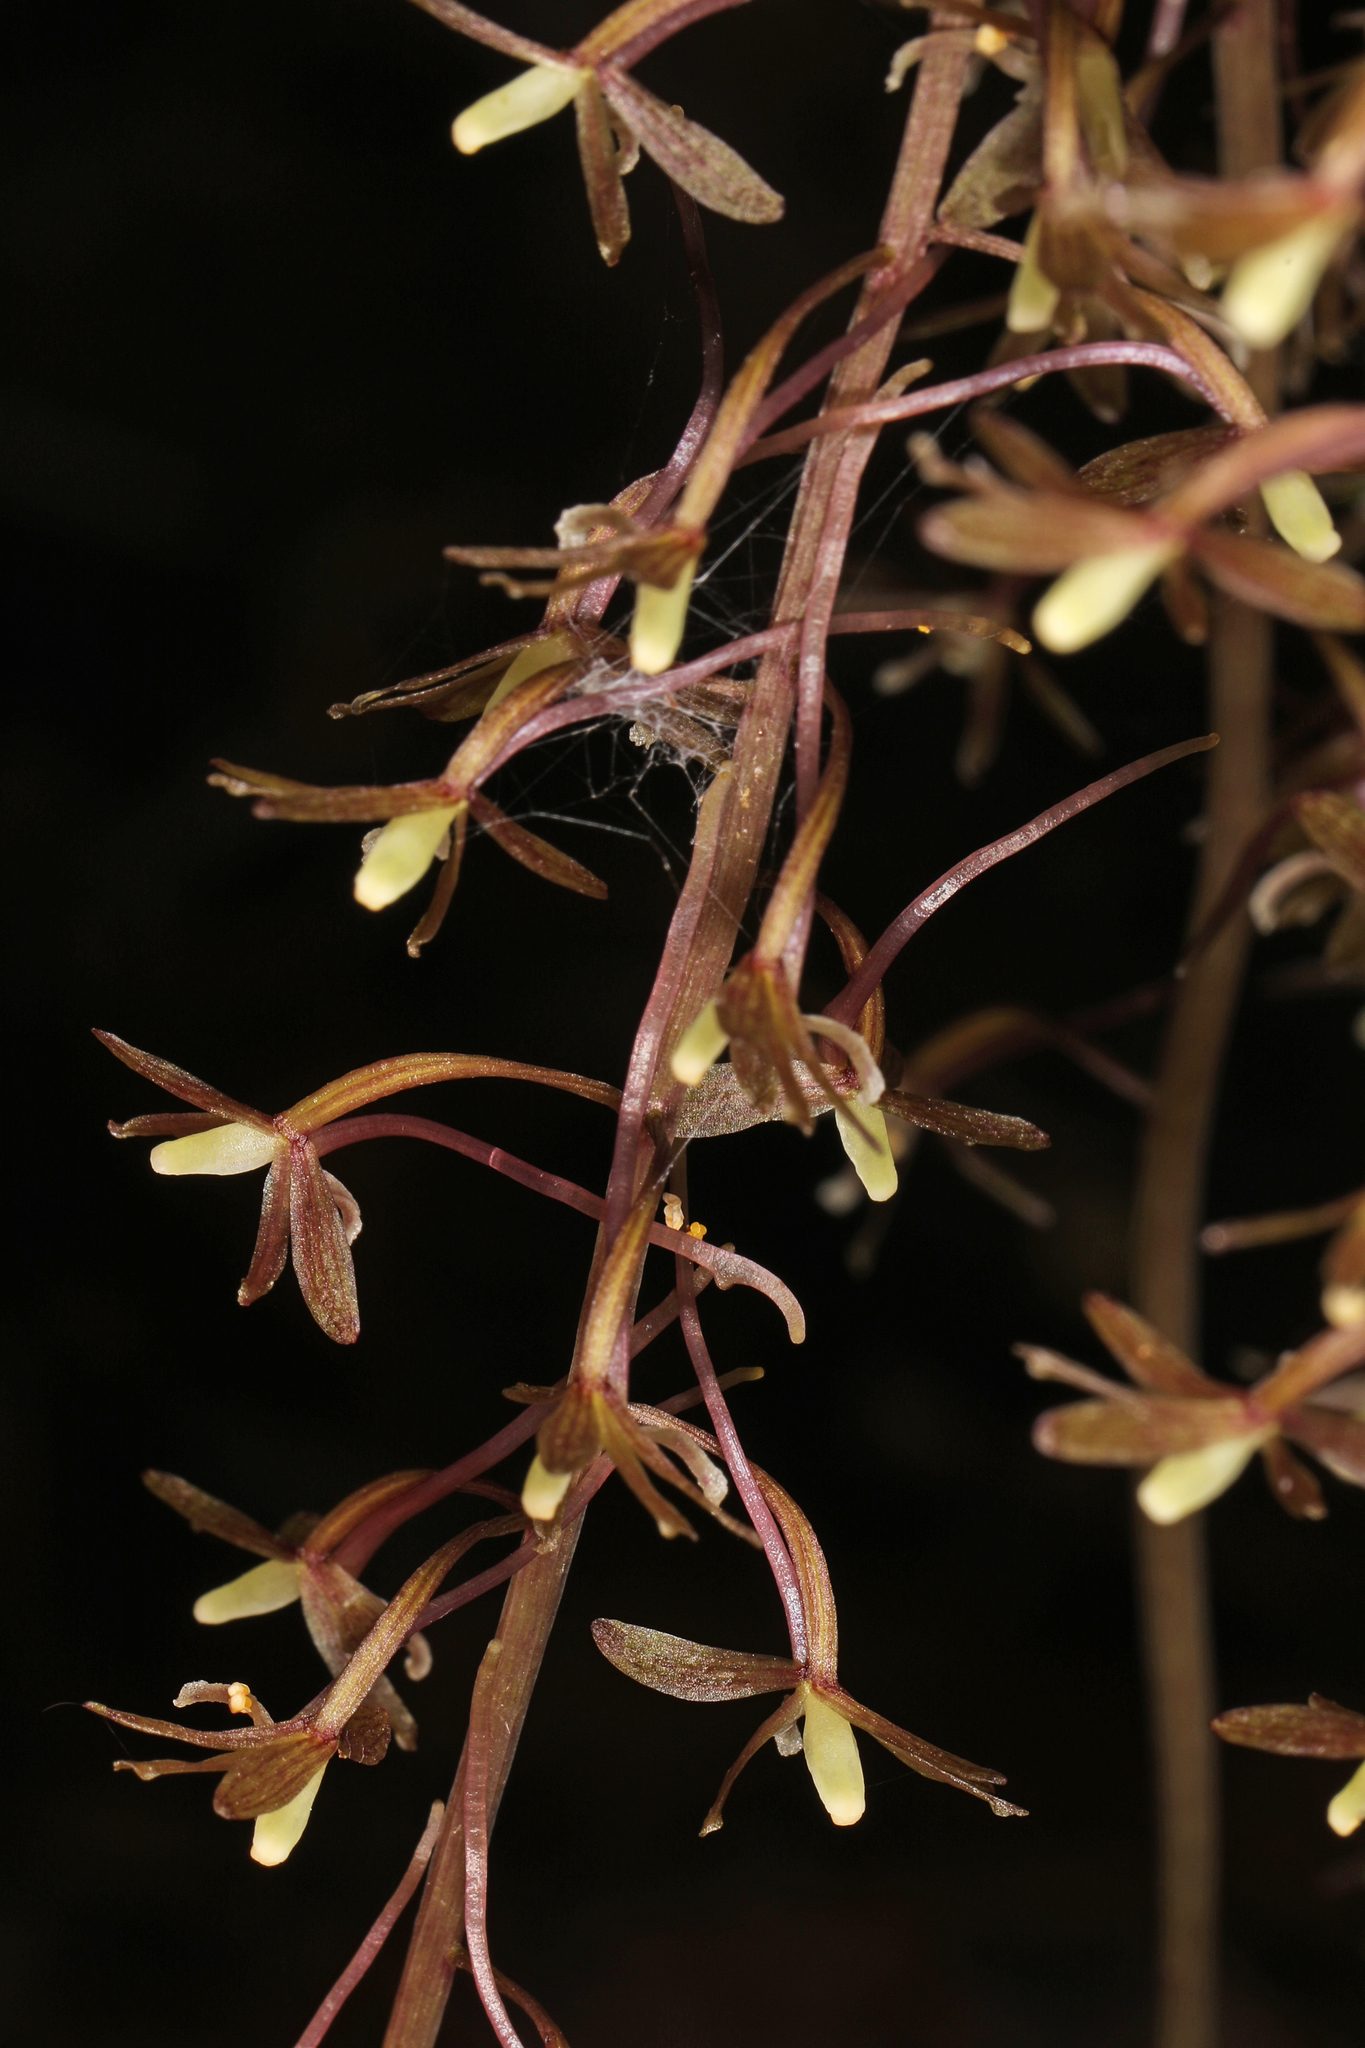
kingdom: Plantae
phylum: Tracheophyta
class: Liliopsida
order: Asparagales
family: Orchidaceae
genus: Tipularia
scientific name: Tipularia discolor
